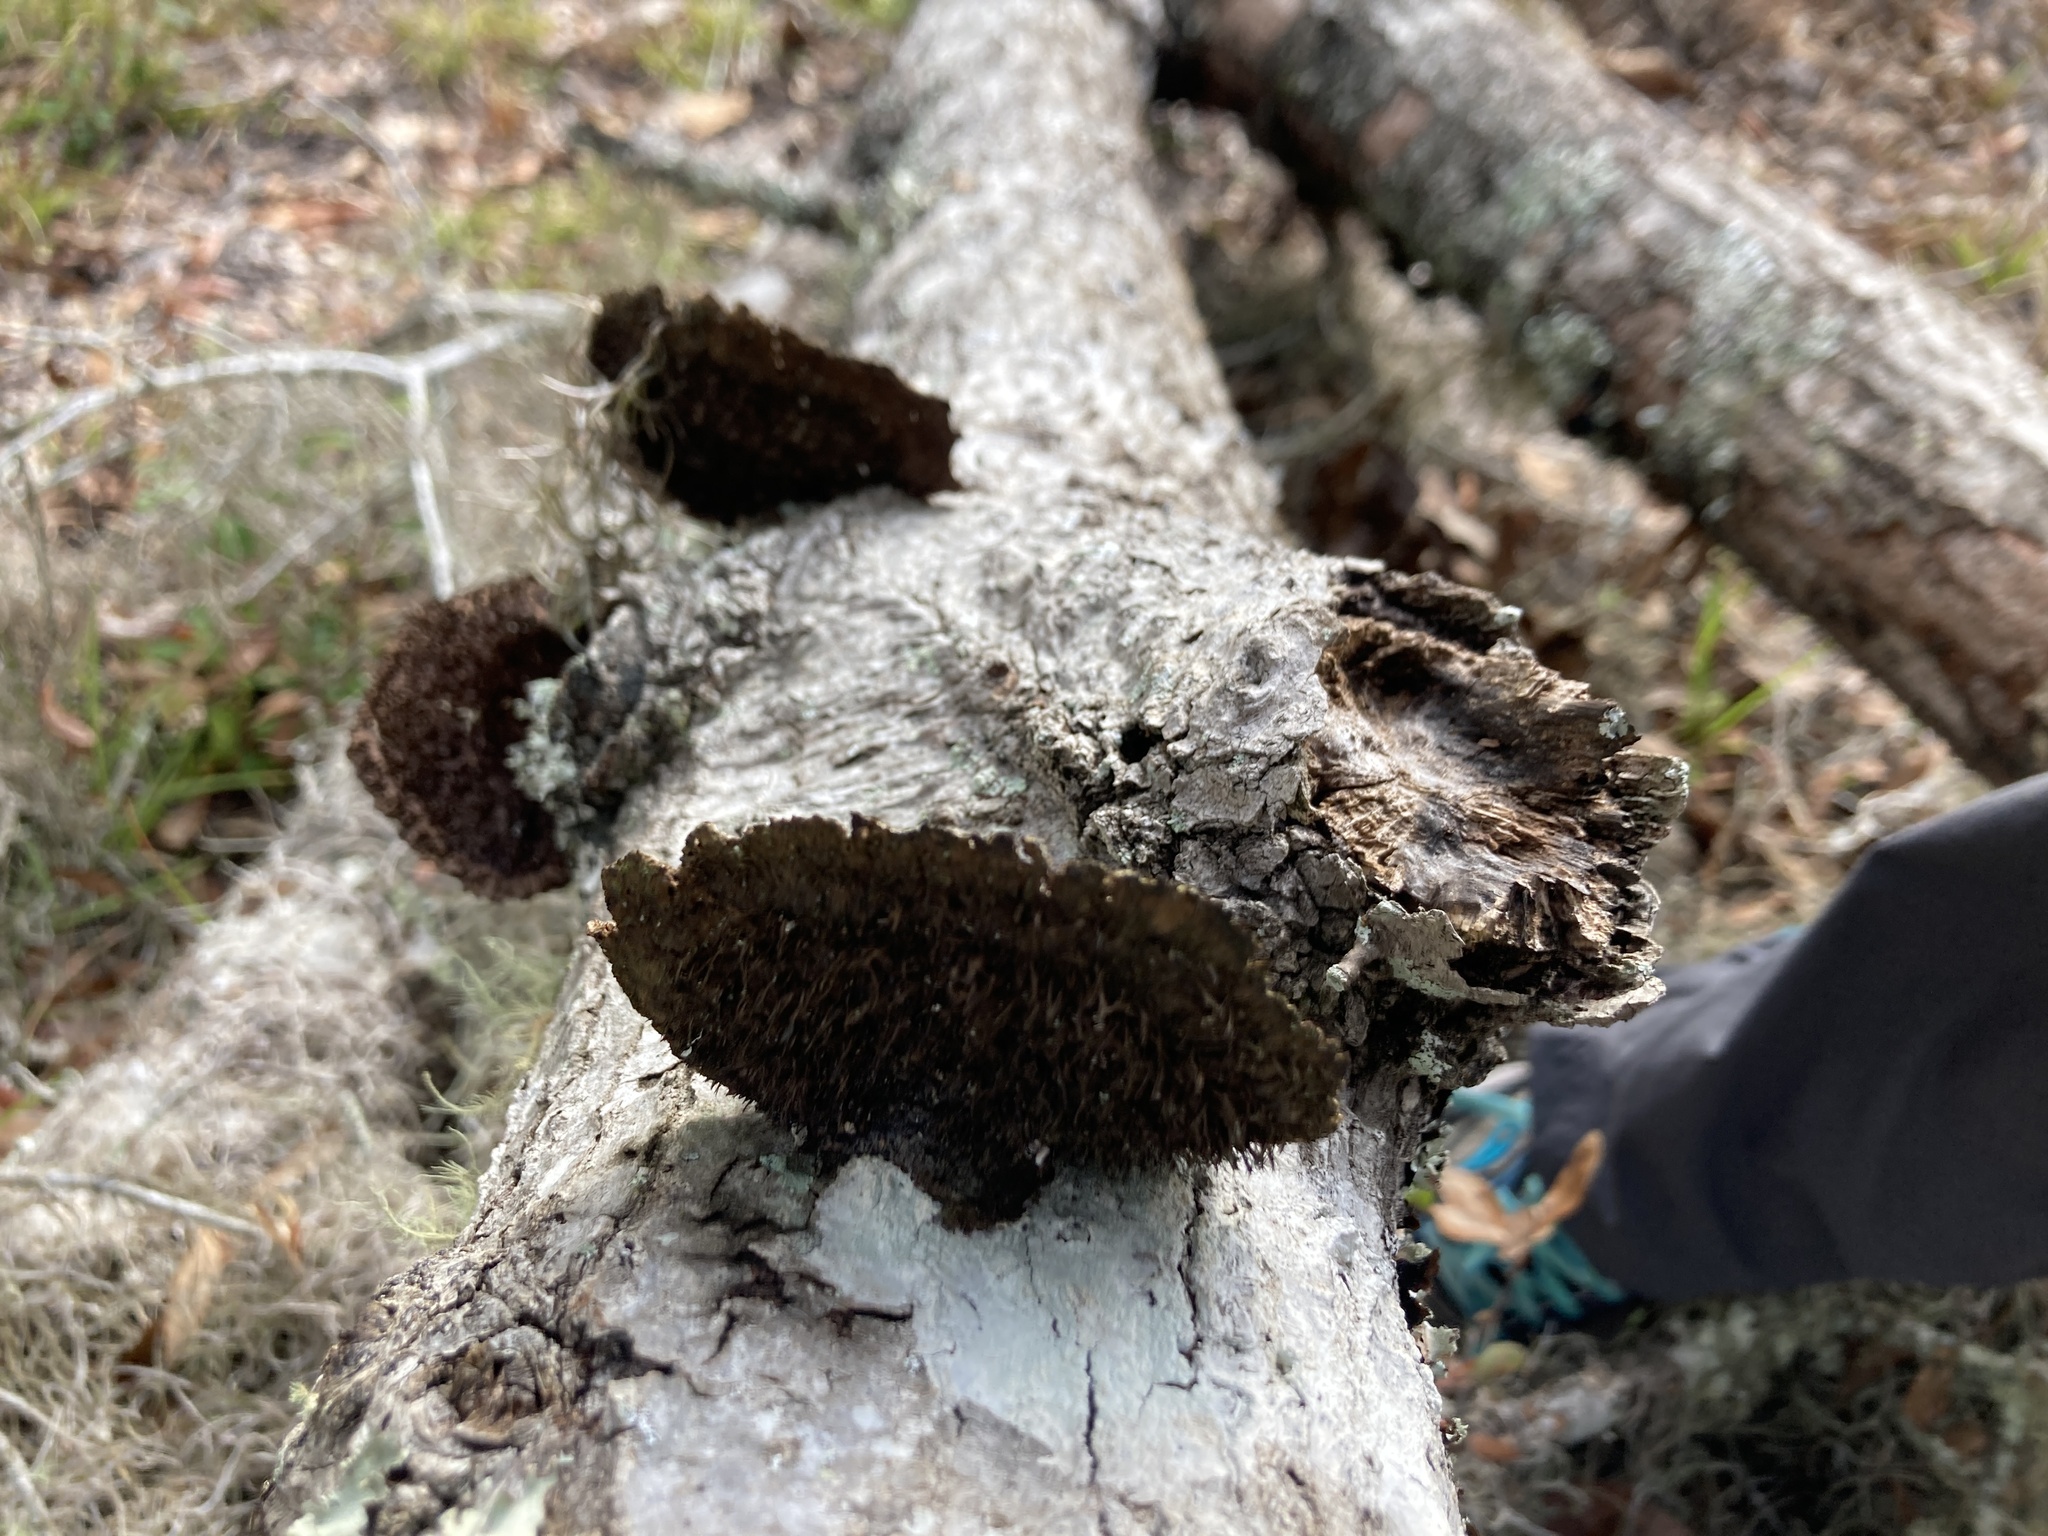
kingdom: Fungi
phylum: Basidiomycota
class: Agaricomycetes
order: Polyporales
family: Cerrenaceae
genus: Cerrena
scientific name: Cerrena hydnoides
